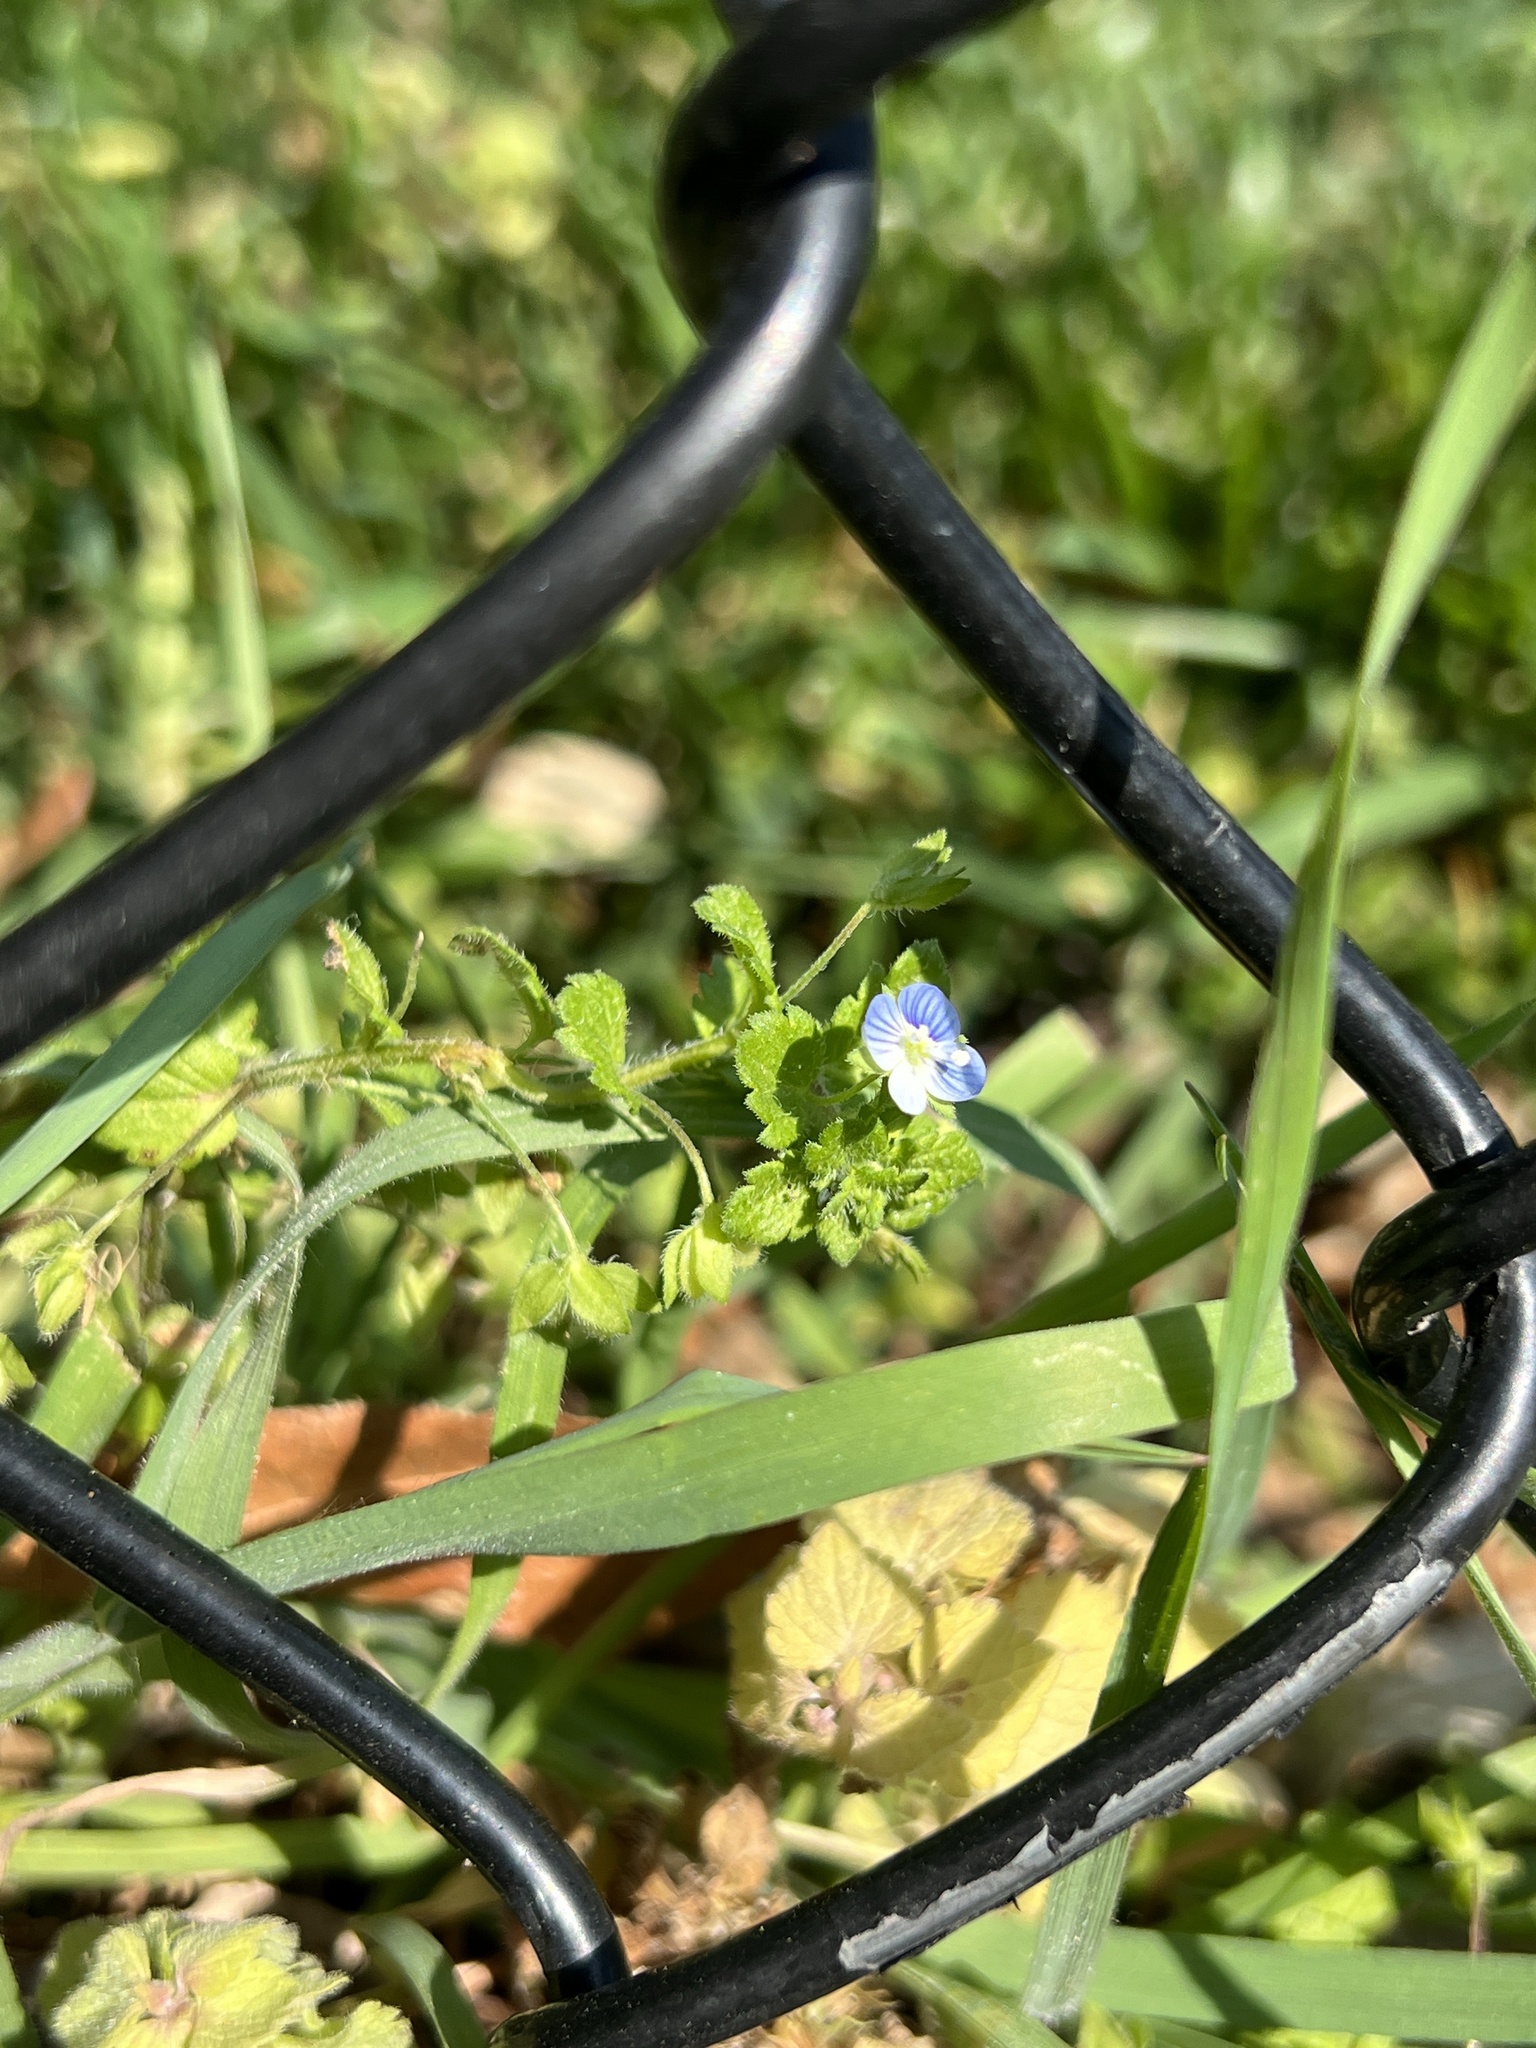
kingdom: Plantae
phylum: Tracheophyta
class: Magnoliopsida
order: Lamiales
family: Plantaginaceae
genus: Veronica
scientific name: Veronica persica
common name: Common field-speedwell
